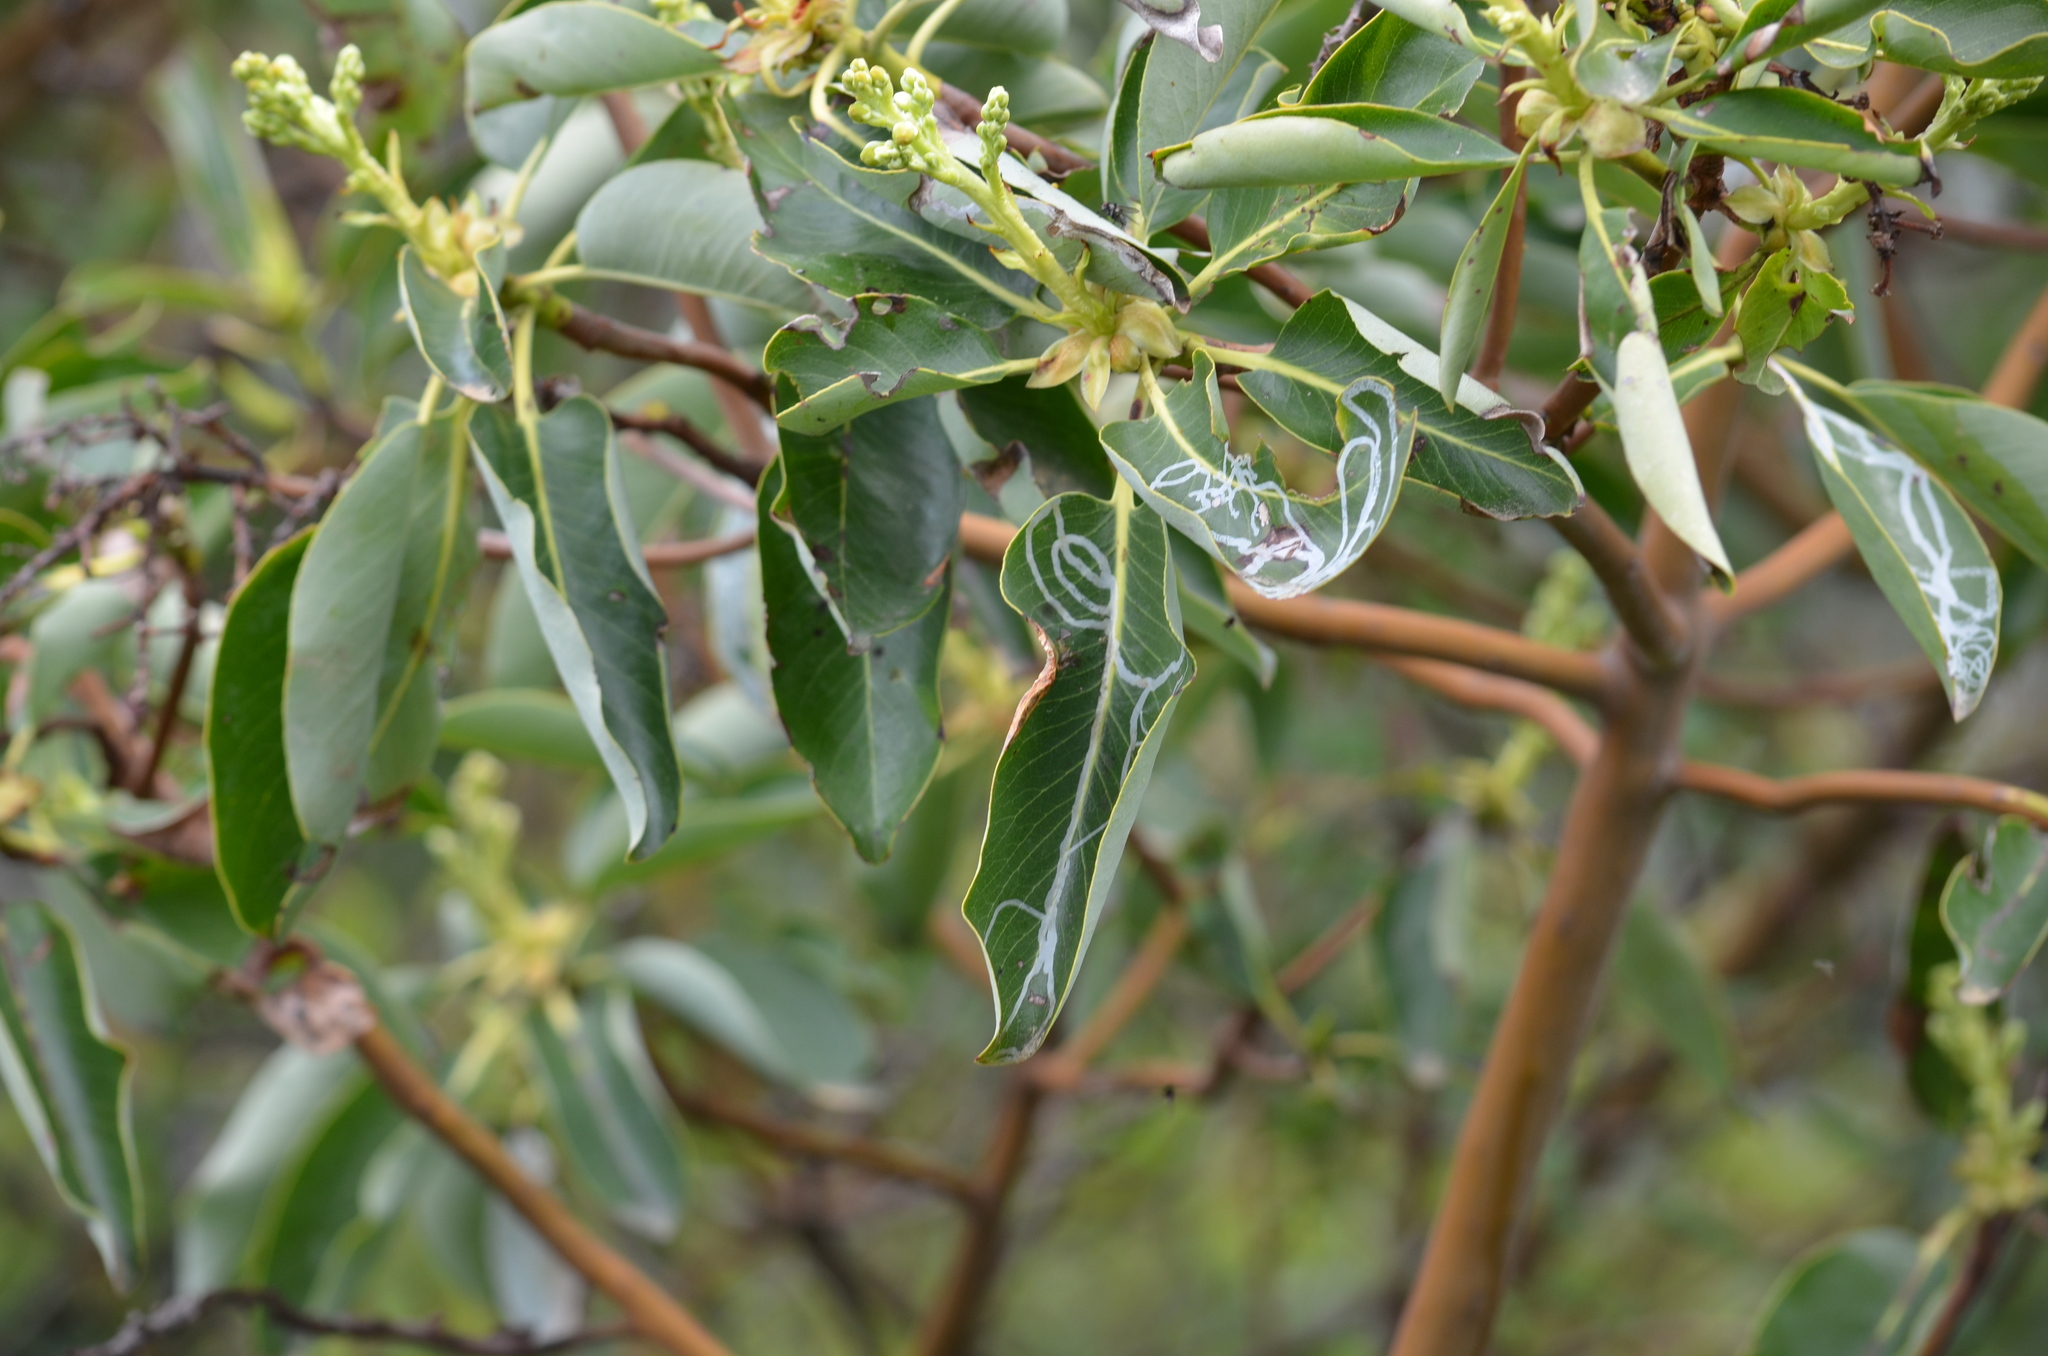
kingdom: Animalia
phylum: Arthropoda
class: Insecta
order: Lepidoptera
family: Gracillariidae
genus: Marmara
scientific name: Marmara arbutiella
